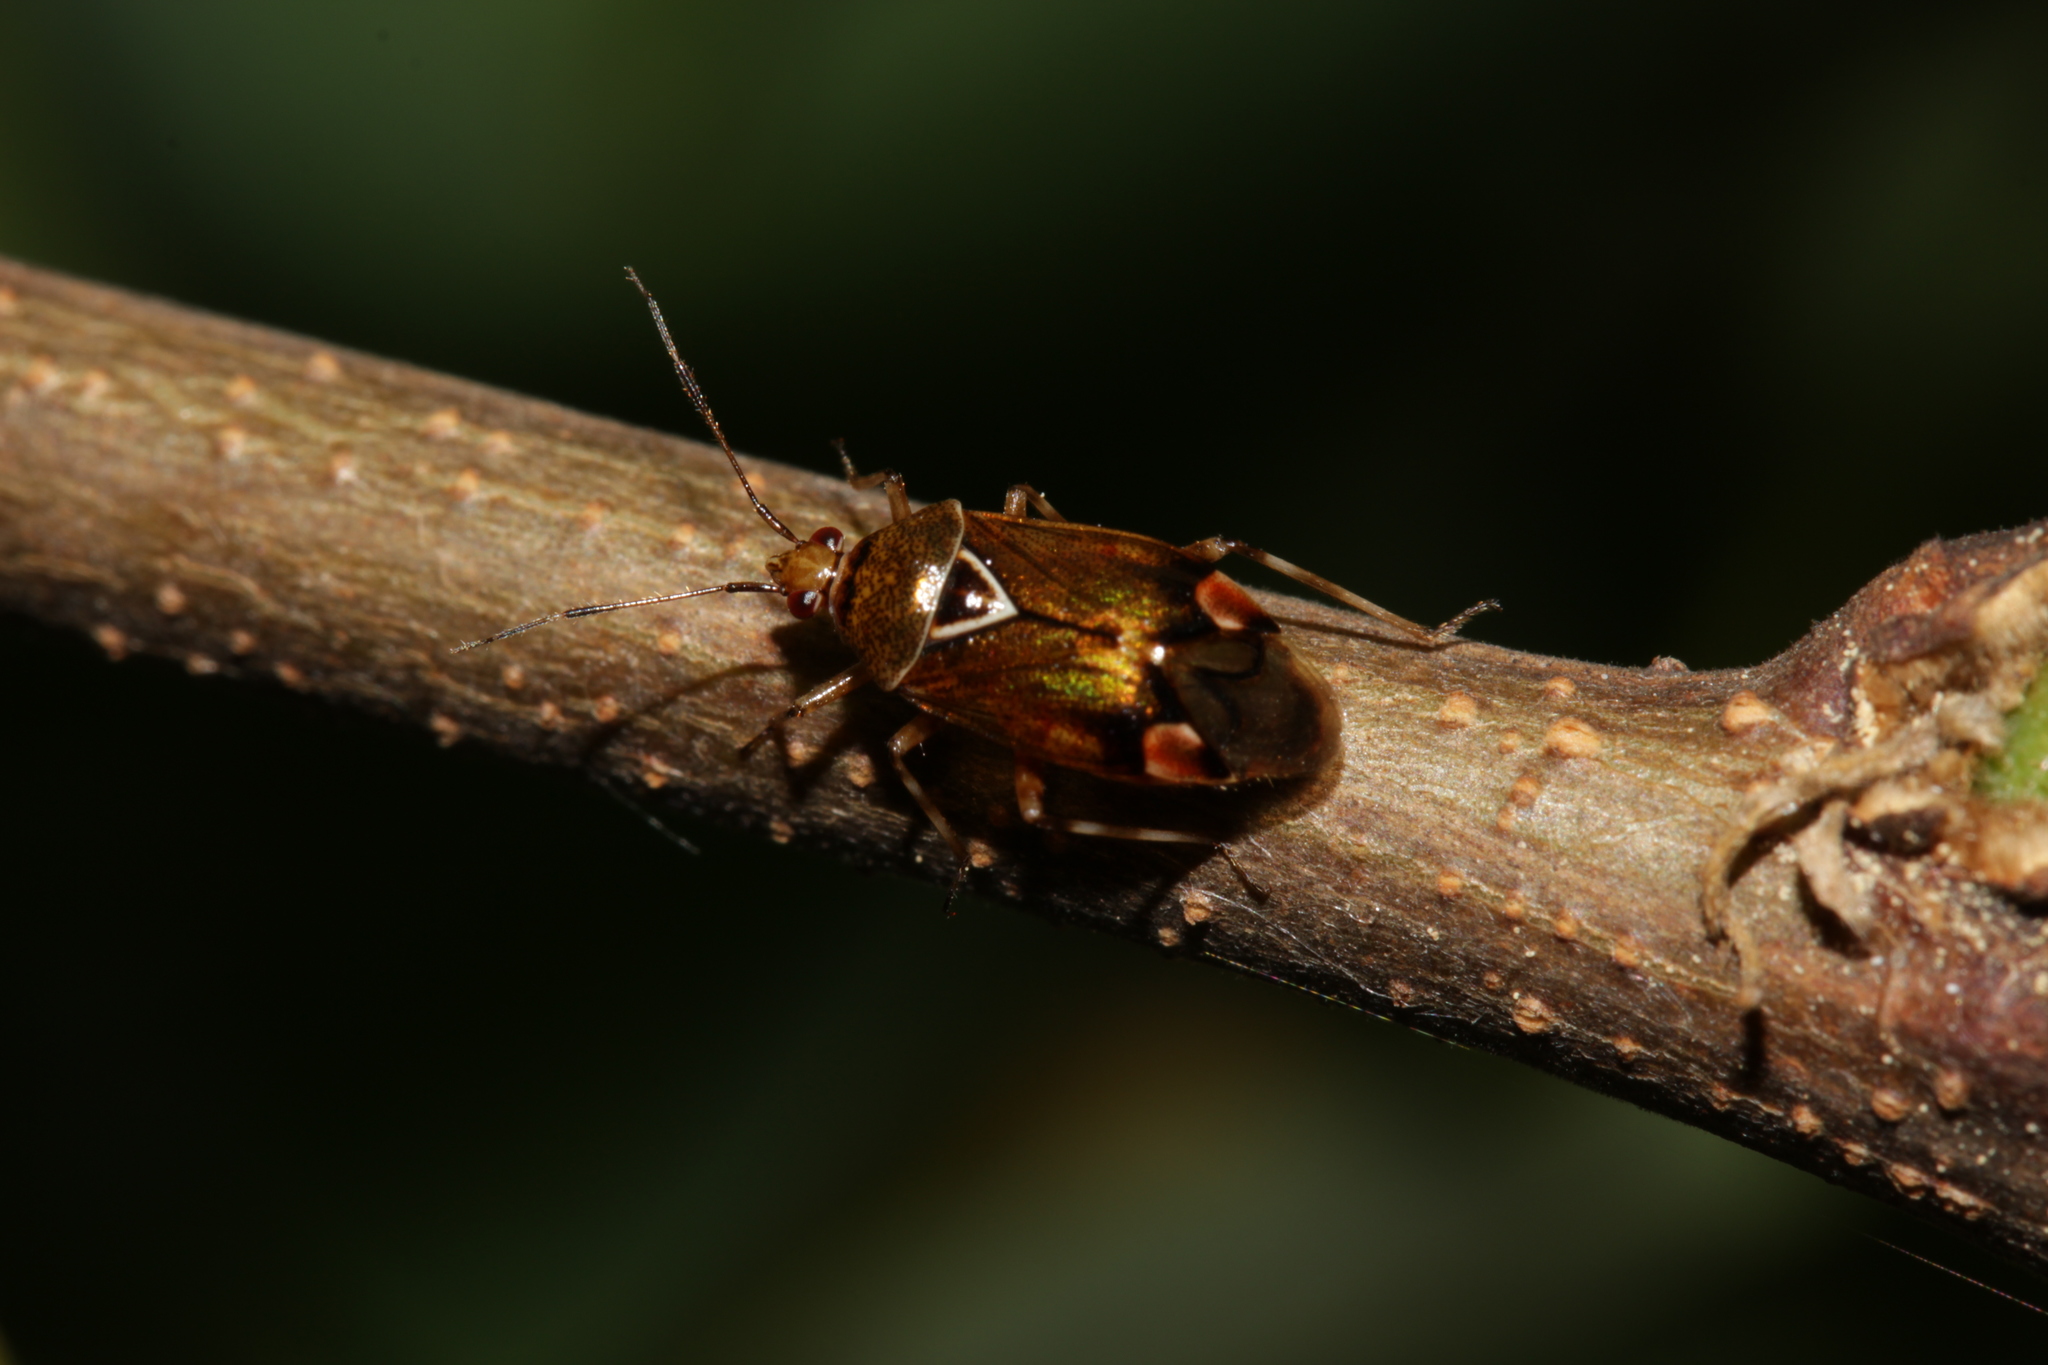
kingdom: Animalia
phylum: Arthropoda
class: Insecta
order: Hemiptera
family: Miridae
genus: Deraeocoris
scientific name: Deraeocoris flavilinea
